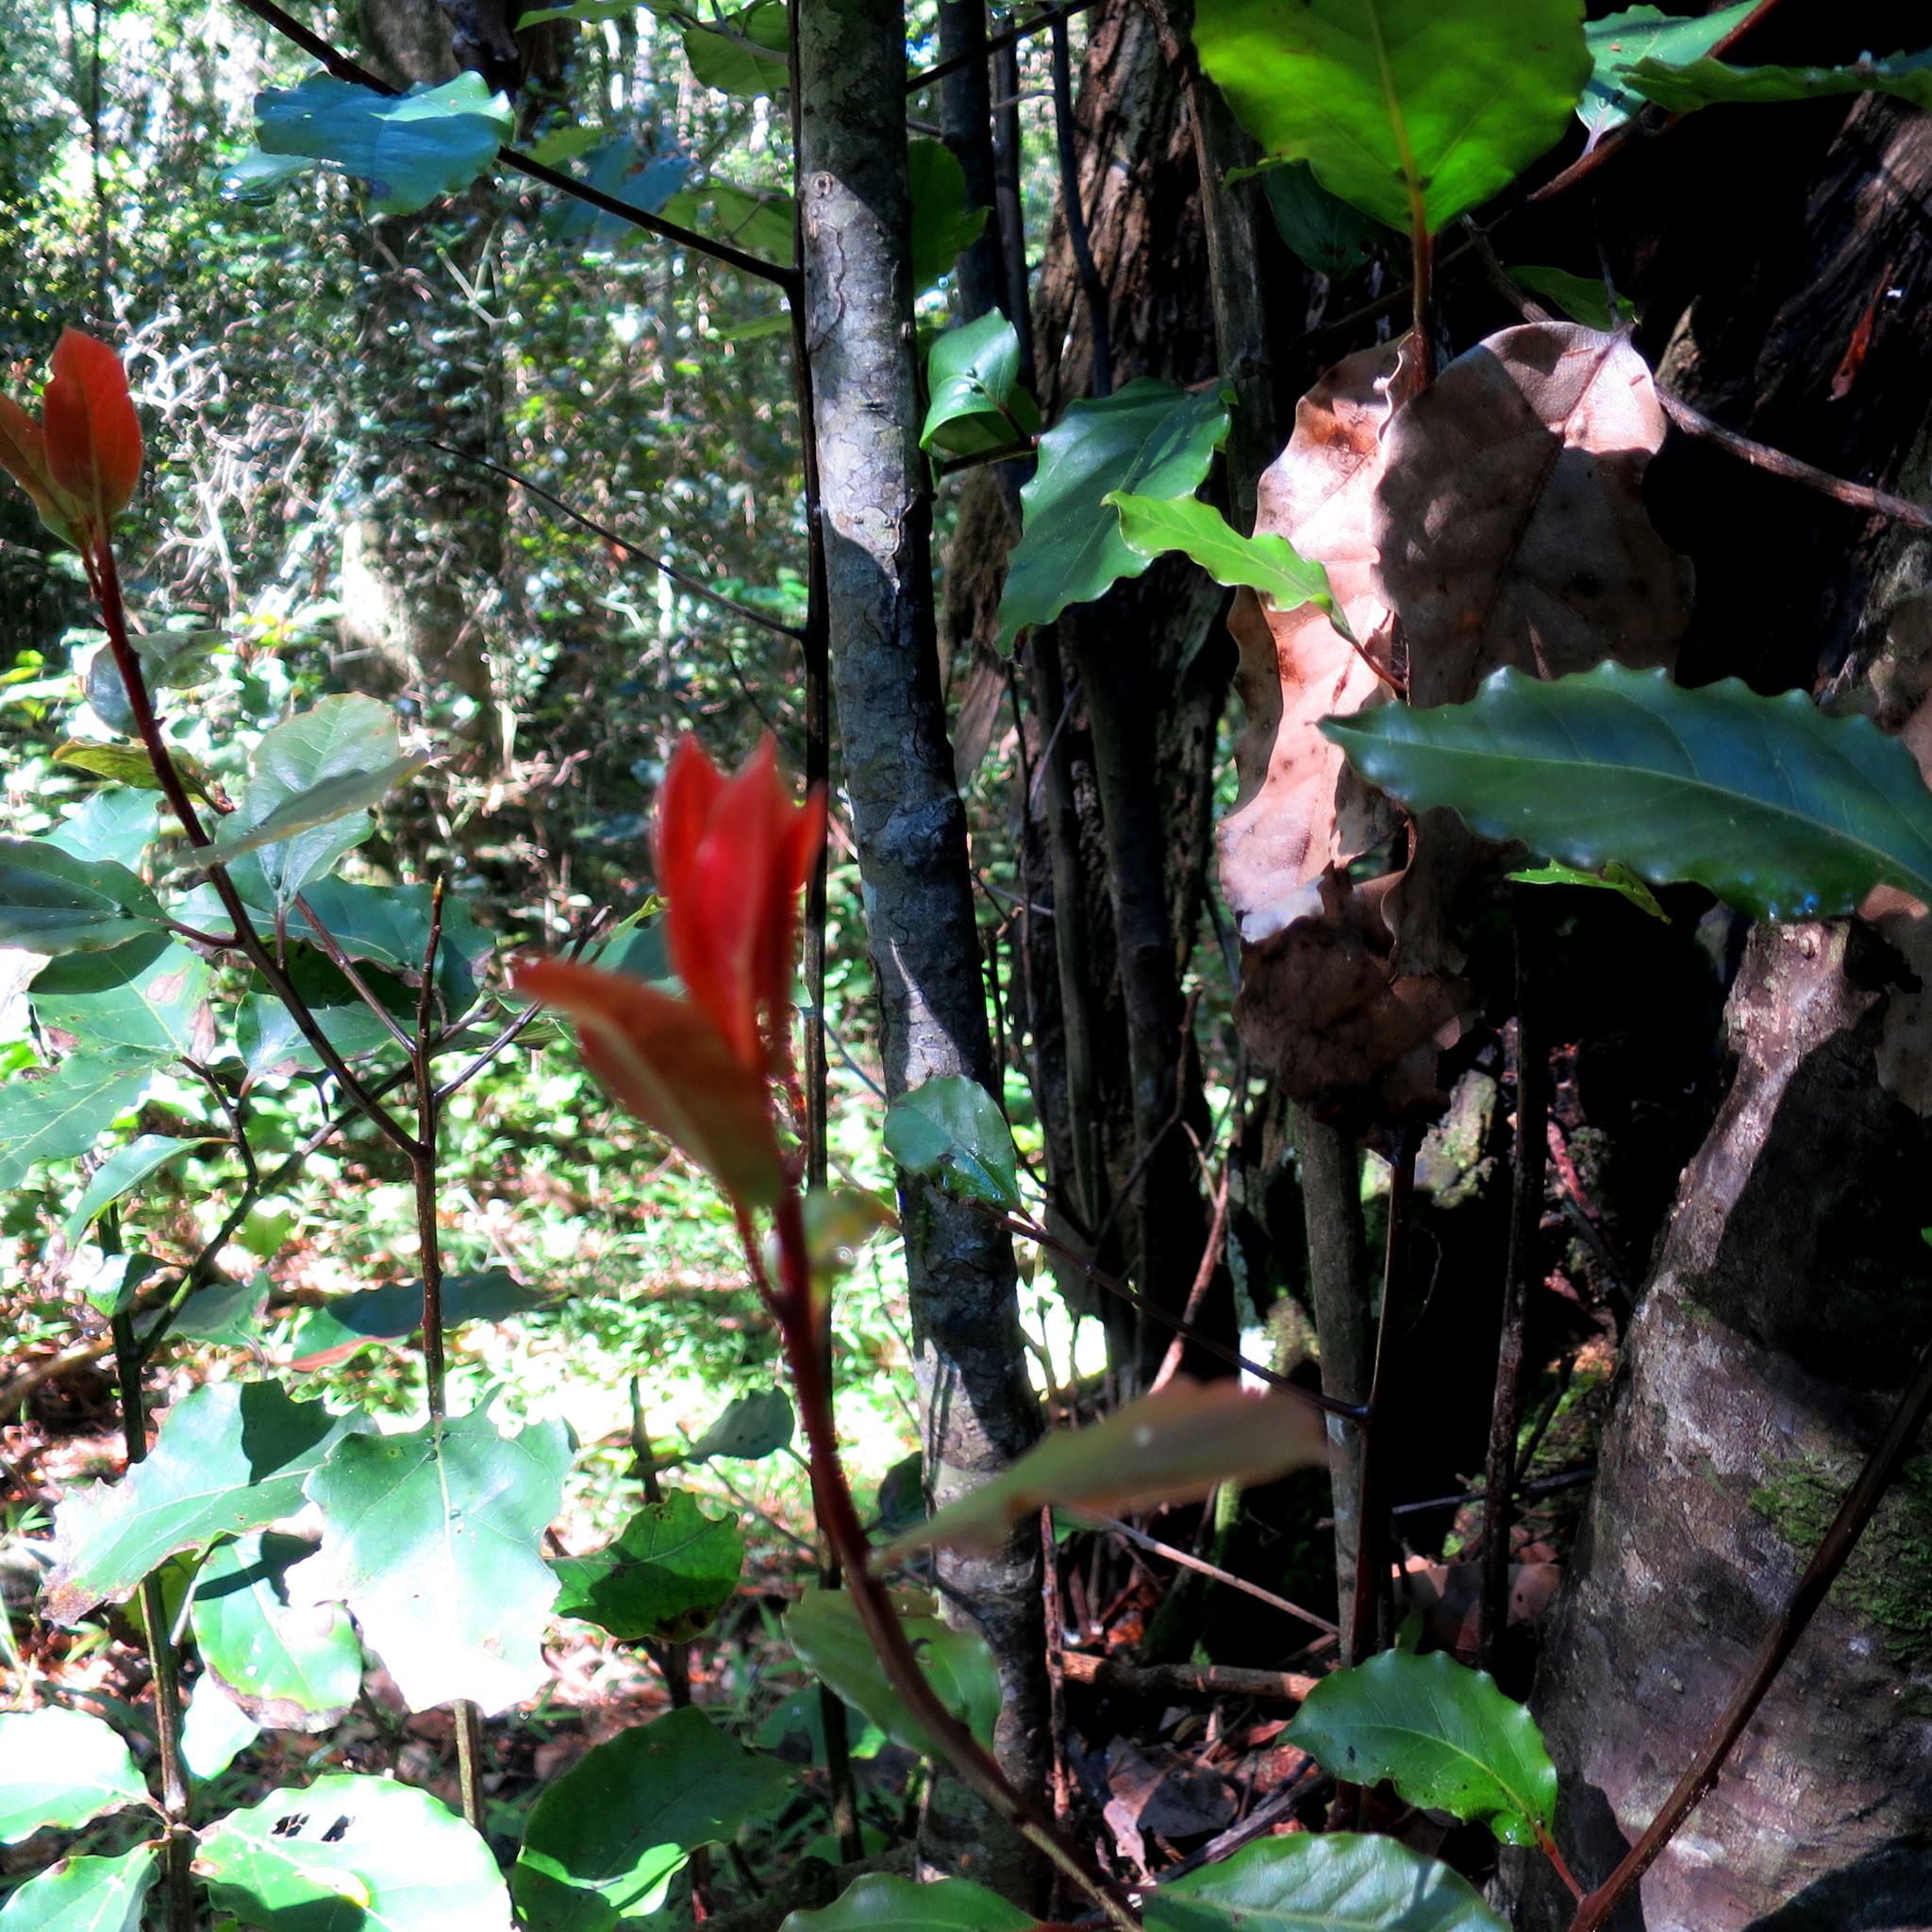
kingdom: Plantae
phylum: Tracheophyta
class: Magnoliopsida
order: Laurales
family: Lauraceae
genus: Ocotea
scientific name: Ocotea bullata
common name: Black stinkwood
